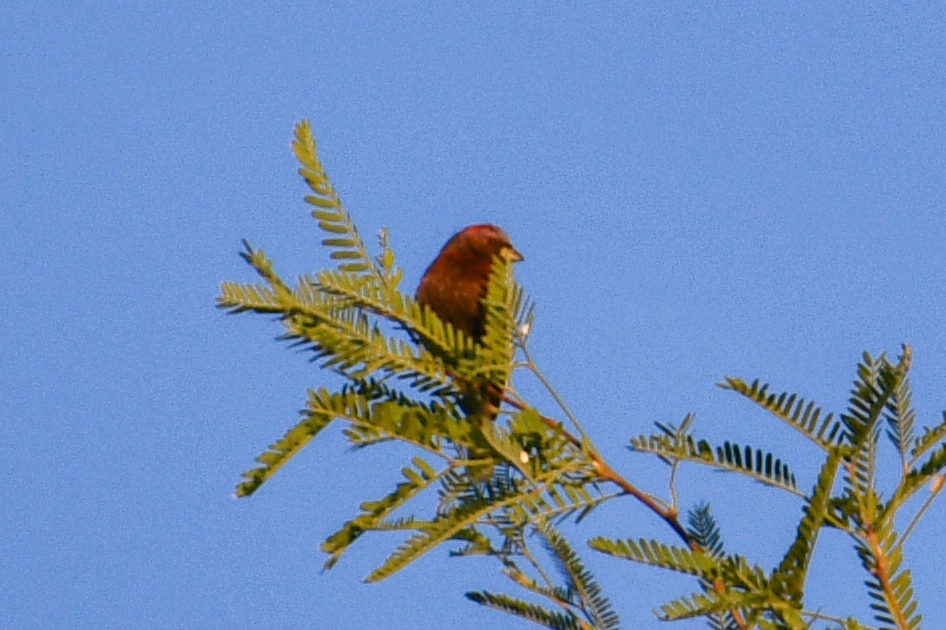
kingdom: Animalia
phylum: Chordata
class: Aves
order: Passeriformes
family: Cardinalidae
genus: Passerina
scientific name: Passerina versicolor
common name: Varied bunting
